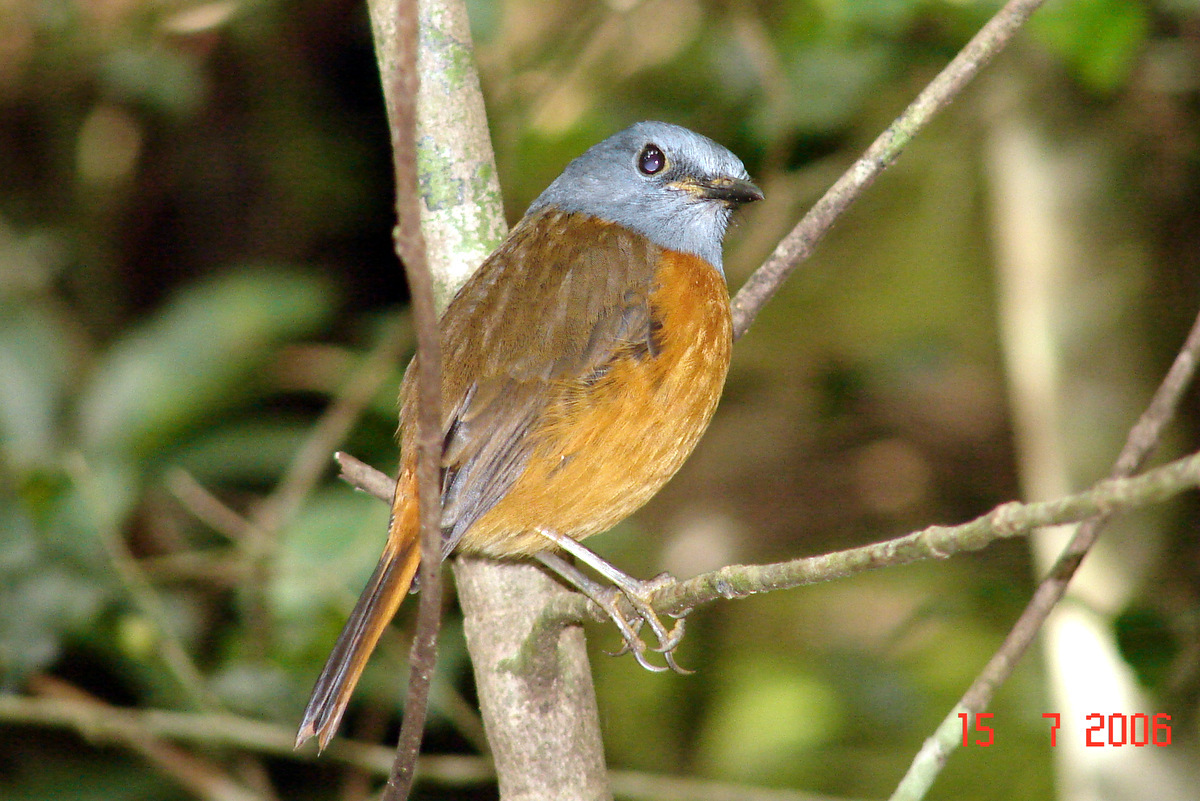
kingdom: Animalia
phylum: Chordata
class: Aves
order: Passeriformes
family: Muscicapidae
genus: Monticola
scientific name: Monticola erythronotus
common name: Amber mountain rock thrush
